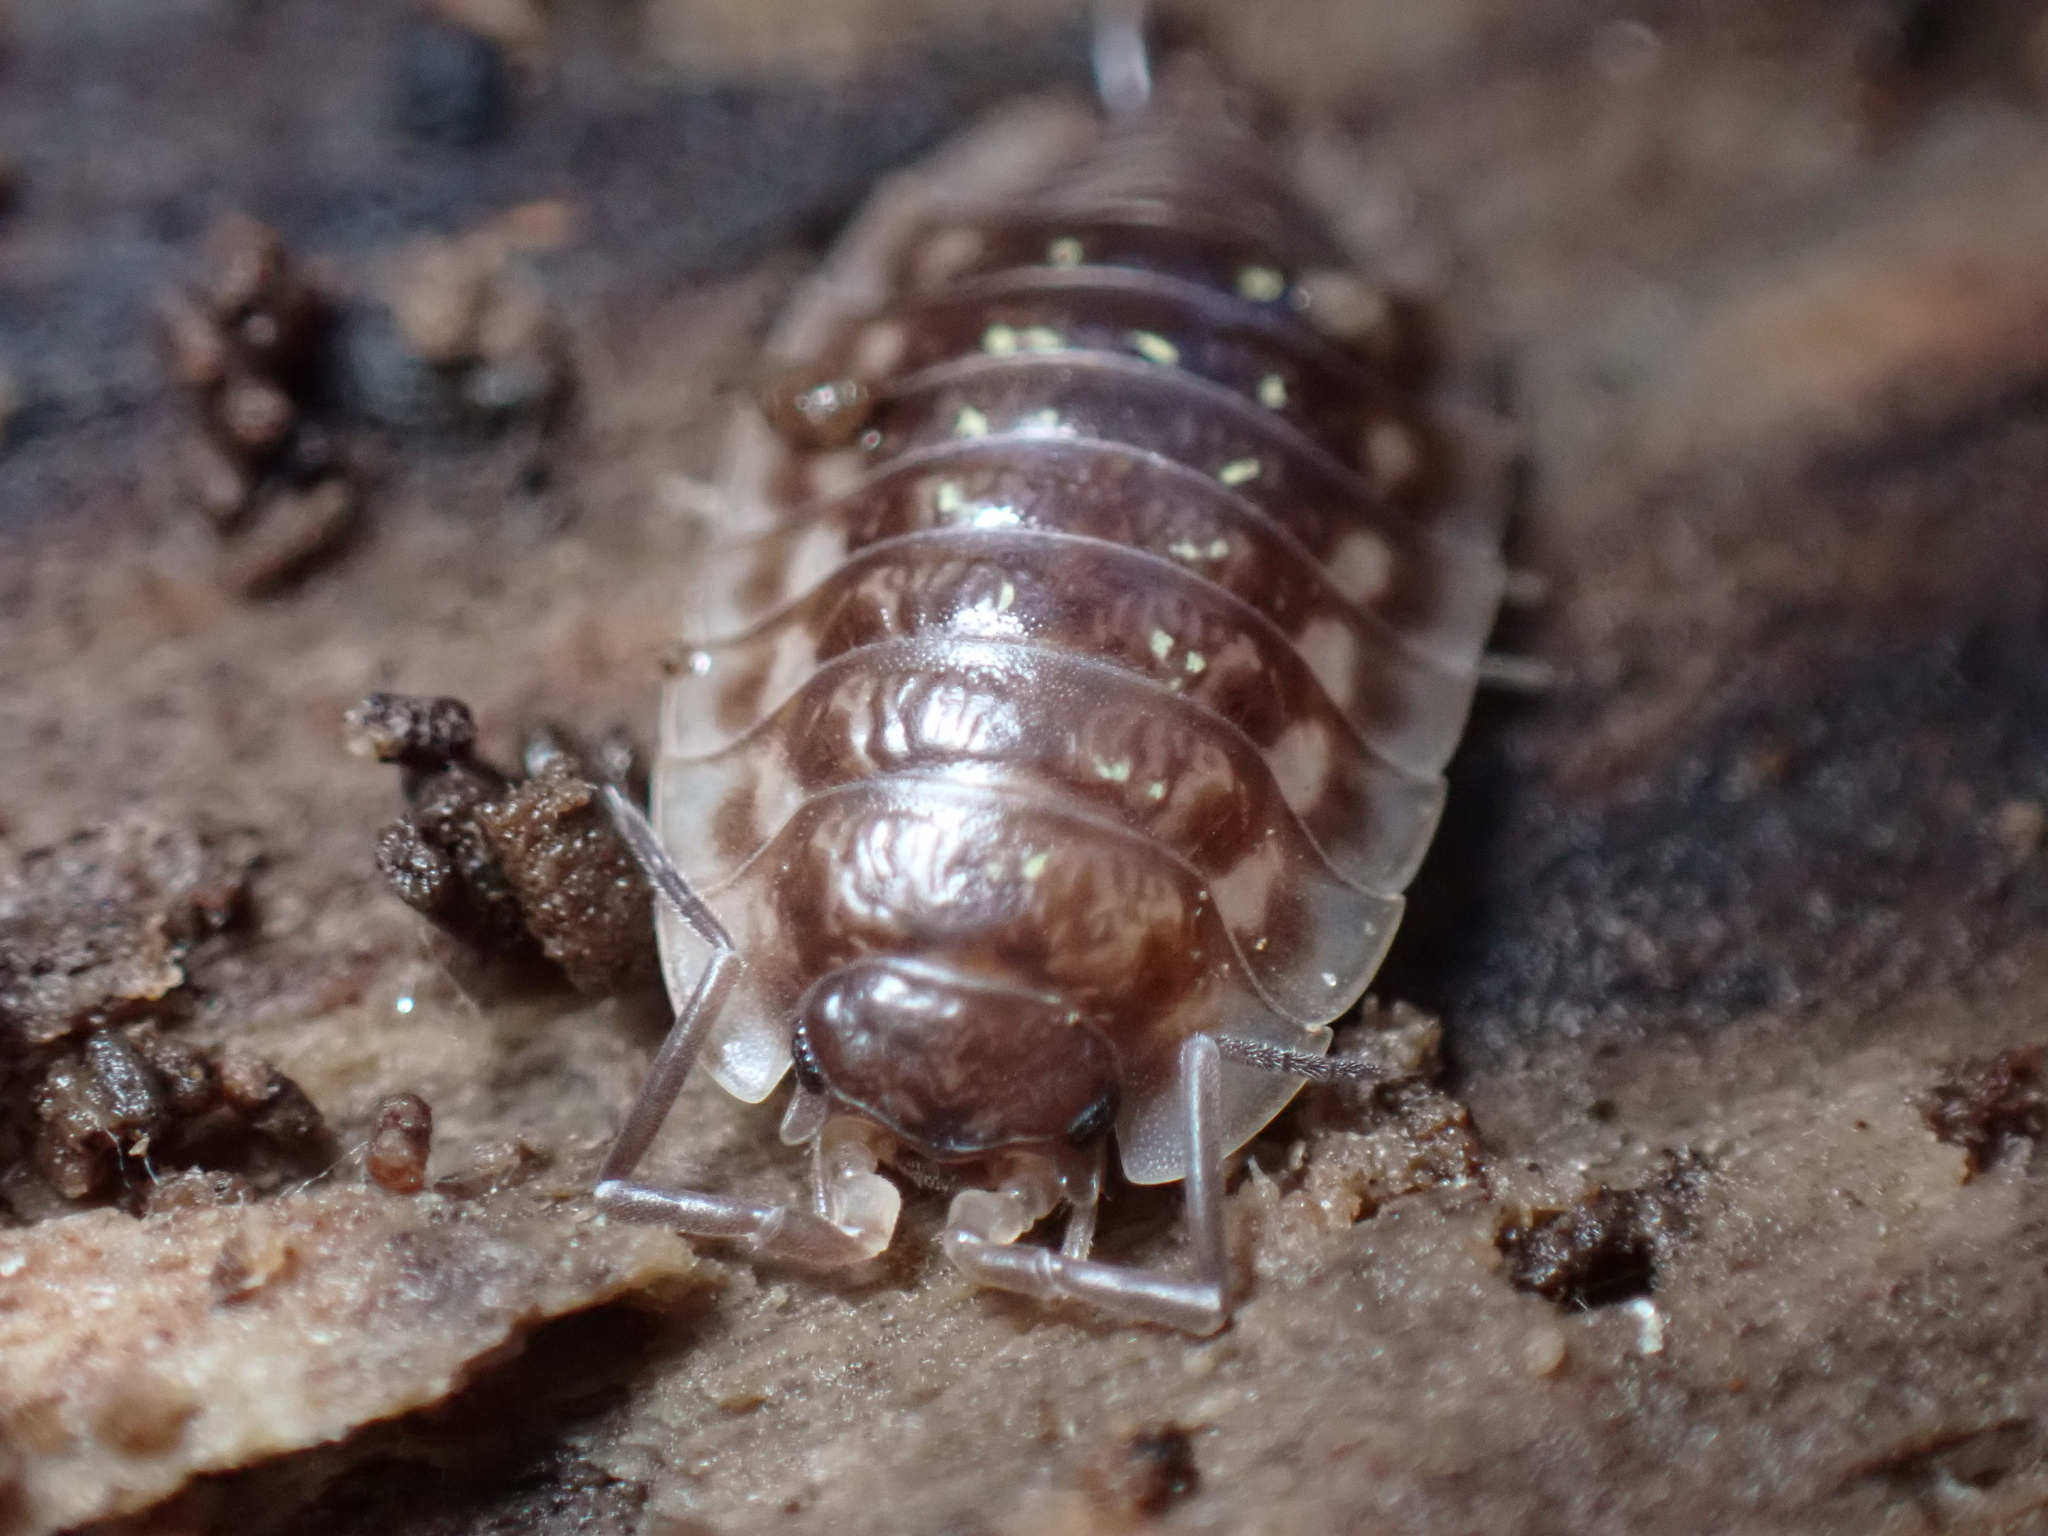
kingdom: Animalia
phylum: Arthropoda
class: Malacostraca
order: Isopoda
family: Oniscidae
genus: Oniscus
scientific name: Oniscus asellus
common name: Common shiny woodlouse
